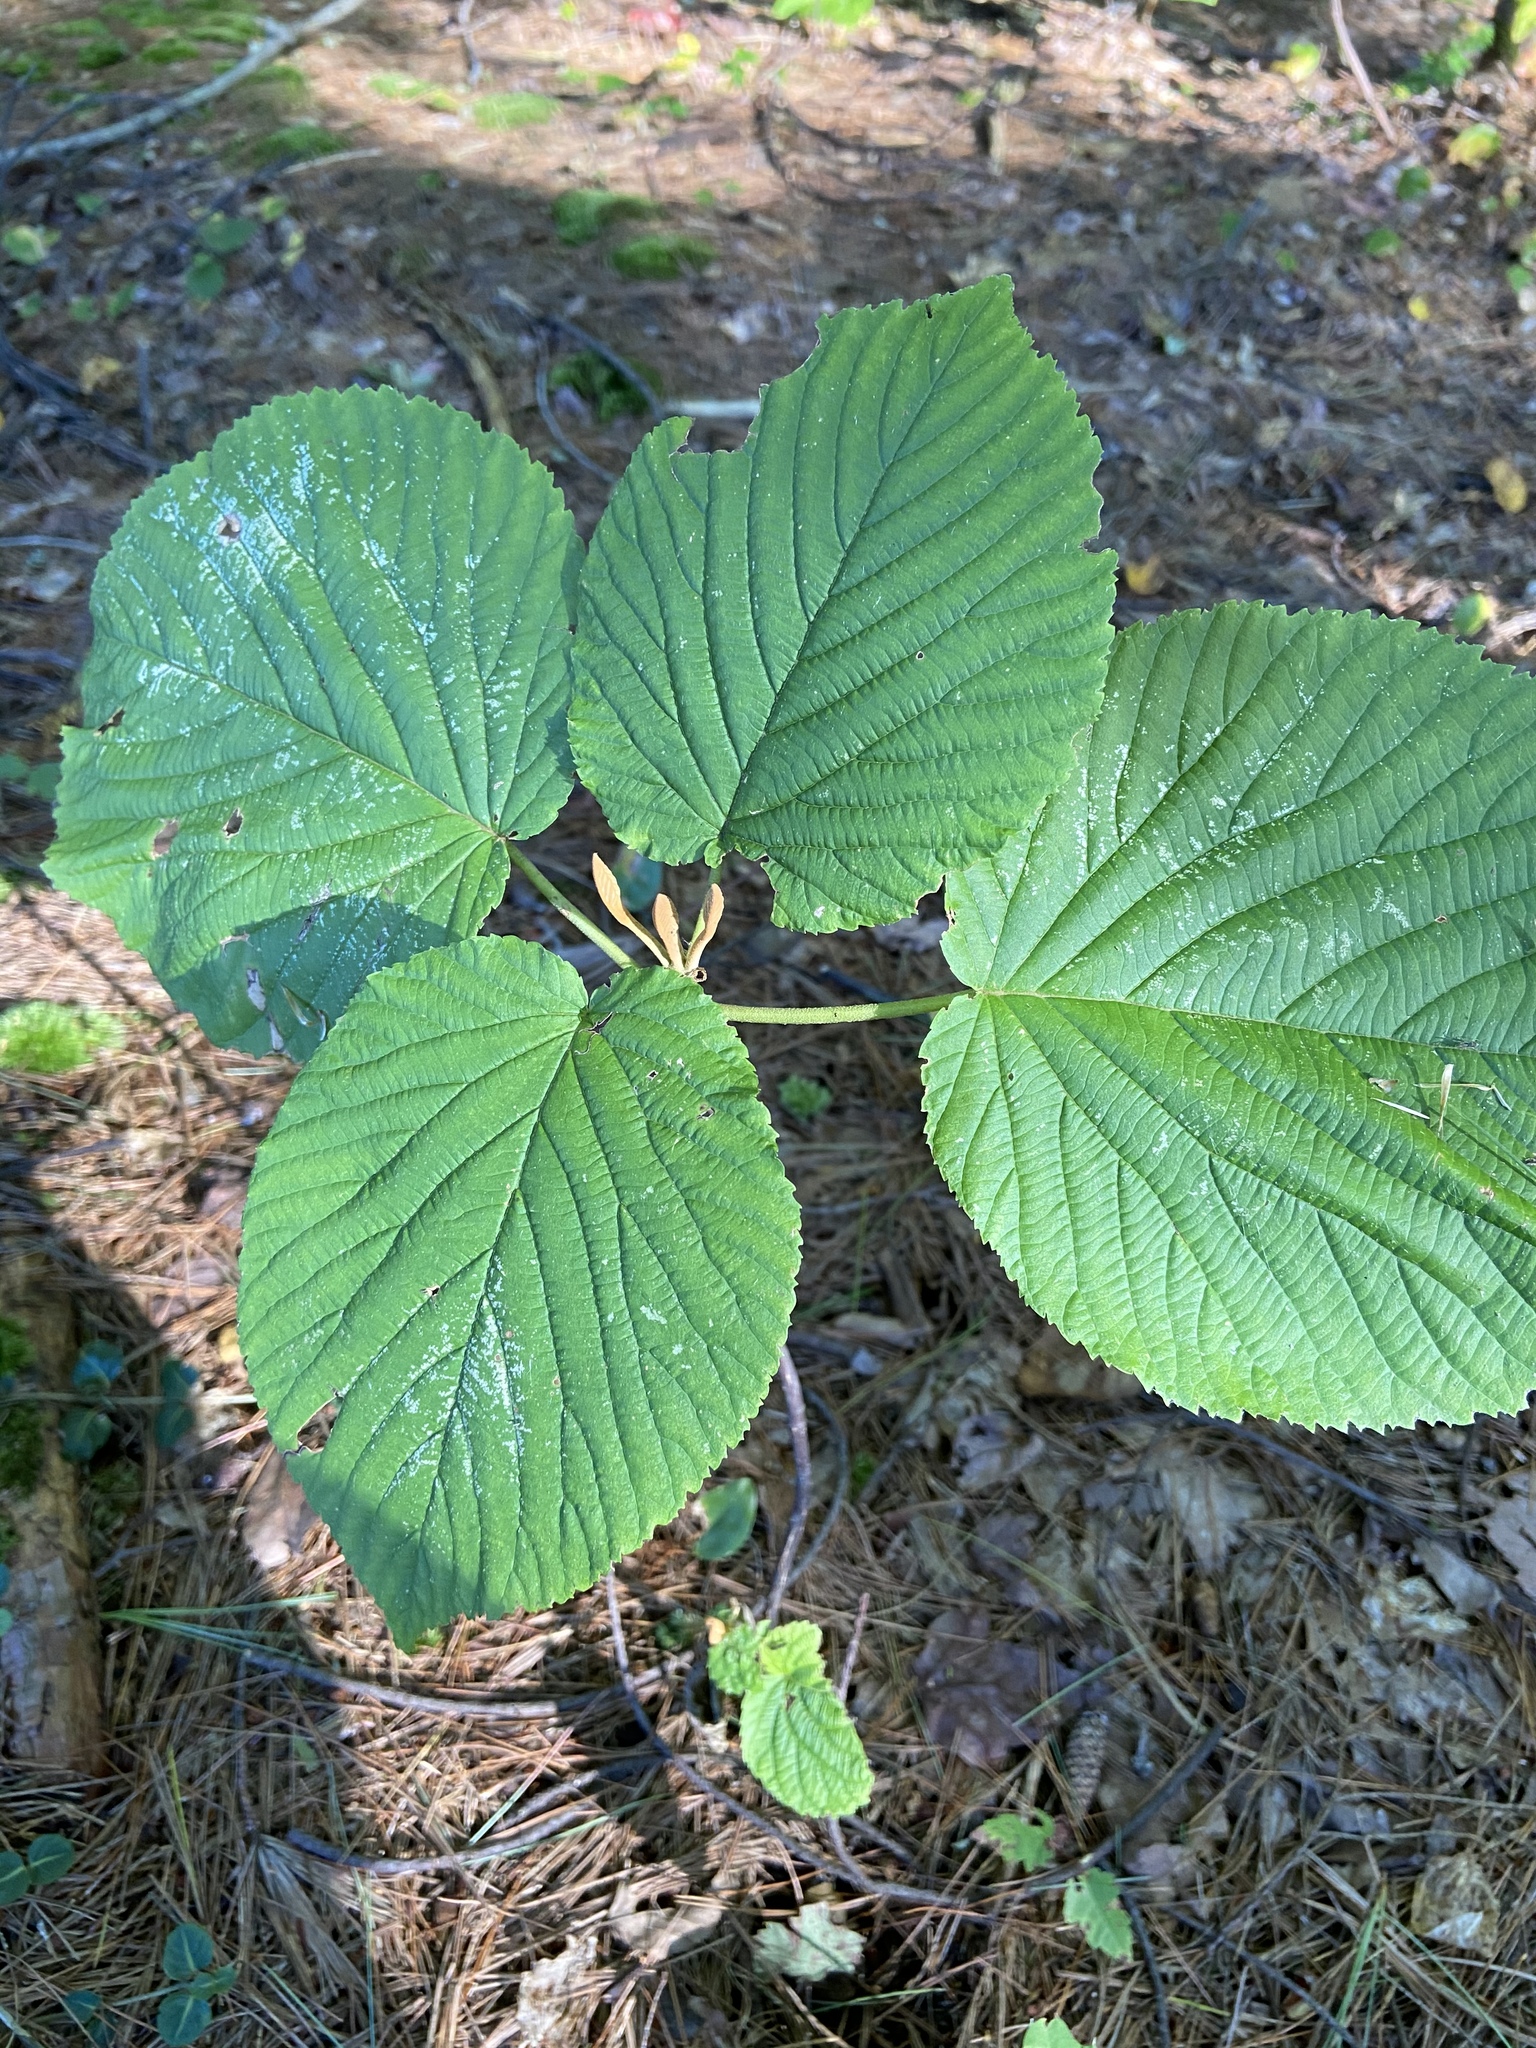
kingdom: Plantae
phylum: Tracheophyta
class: Magnoliopsida
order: Dipsacales
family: Viburnaceae
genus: Viburnum
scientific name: Viburnum lantanoides
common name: Hobblebush
